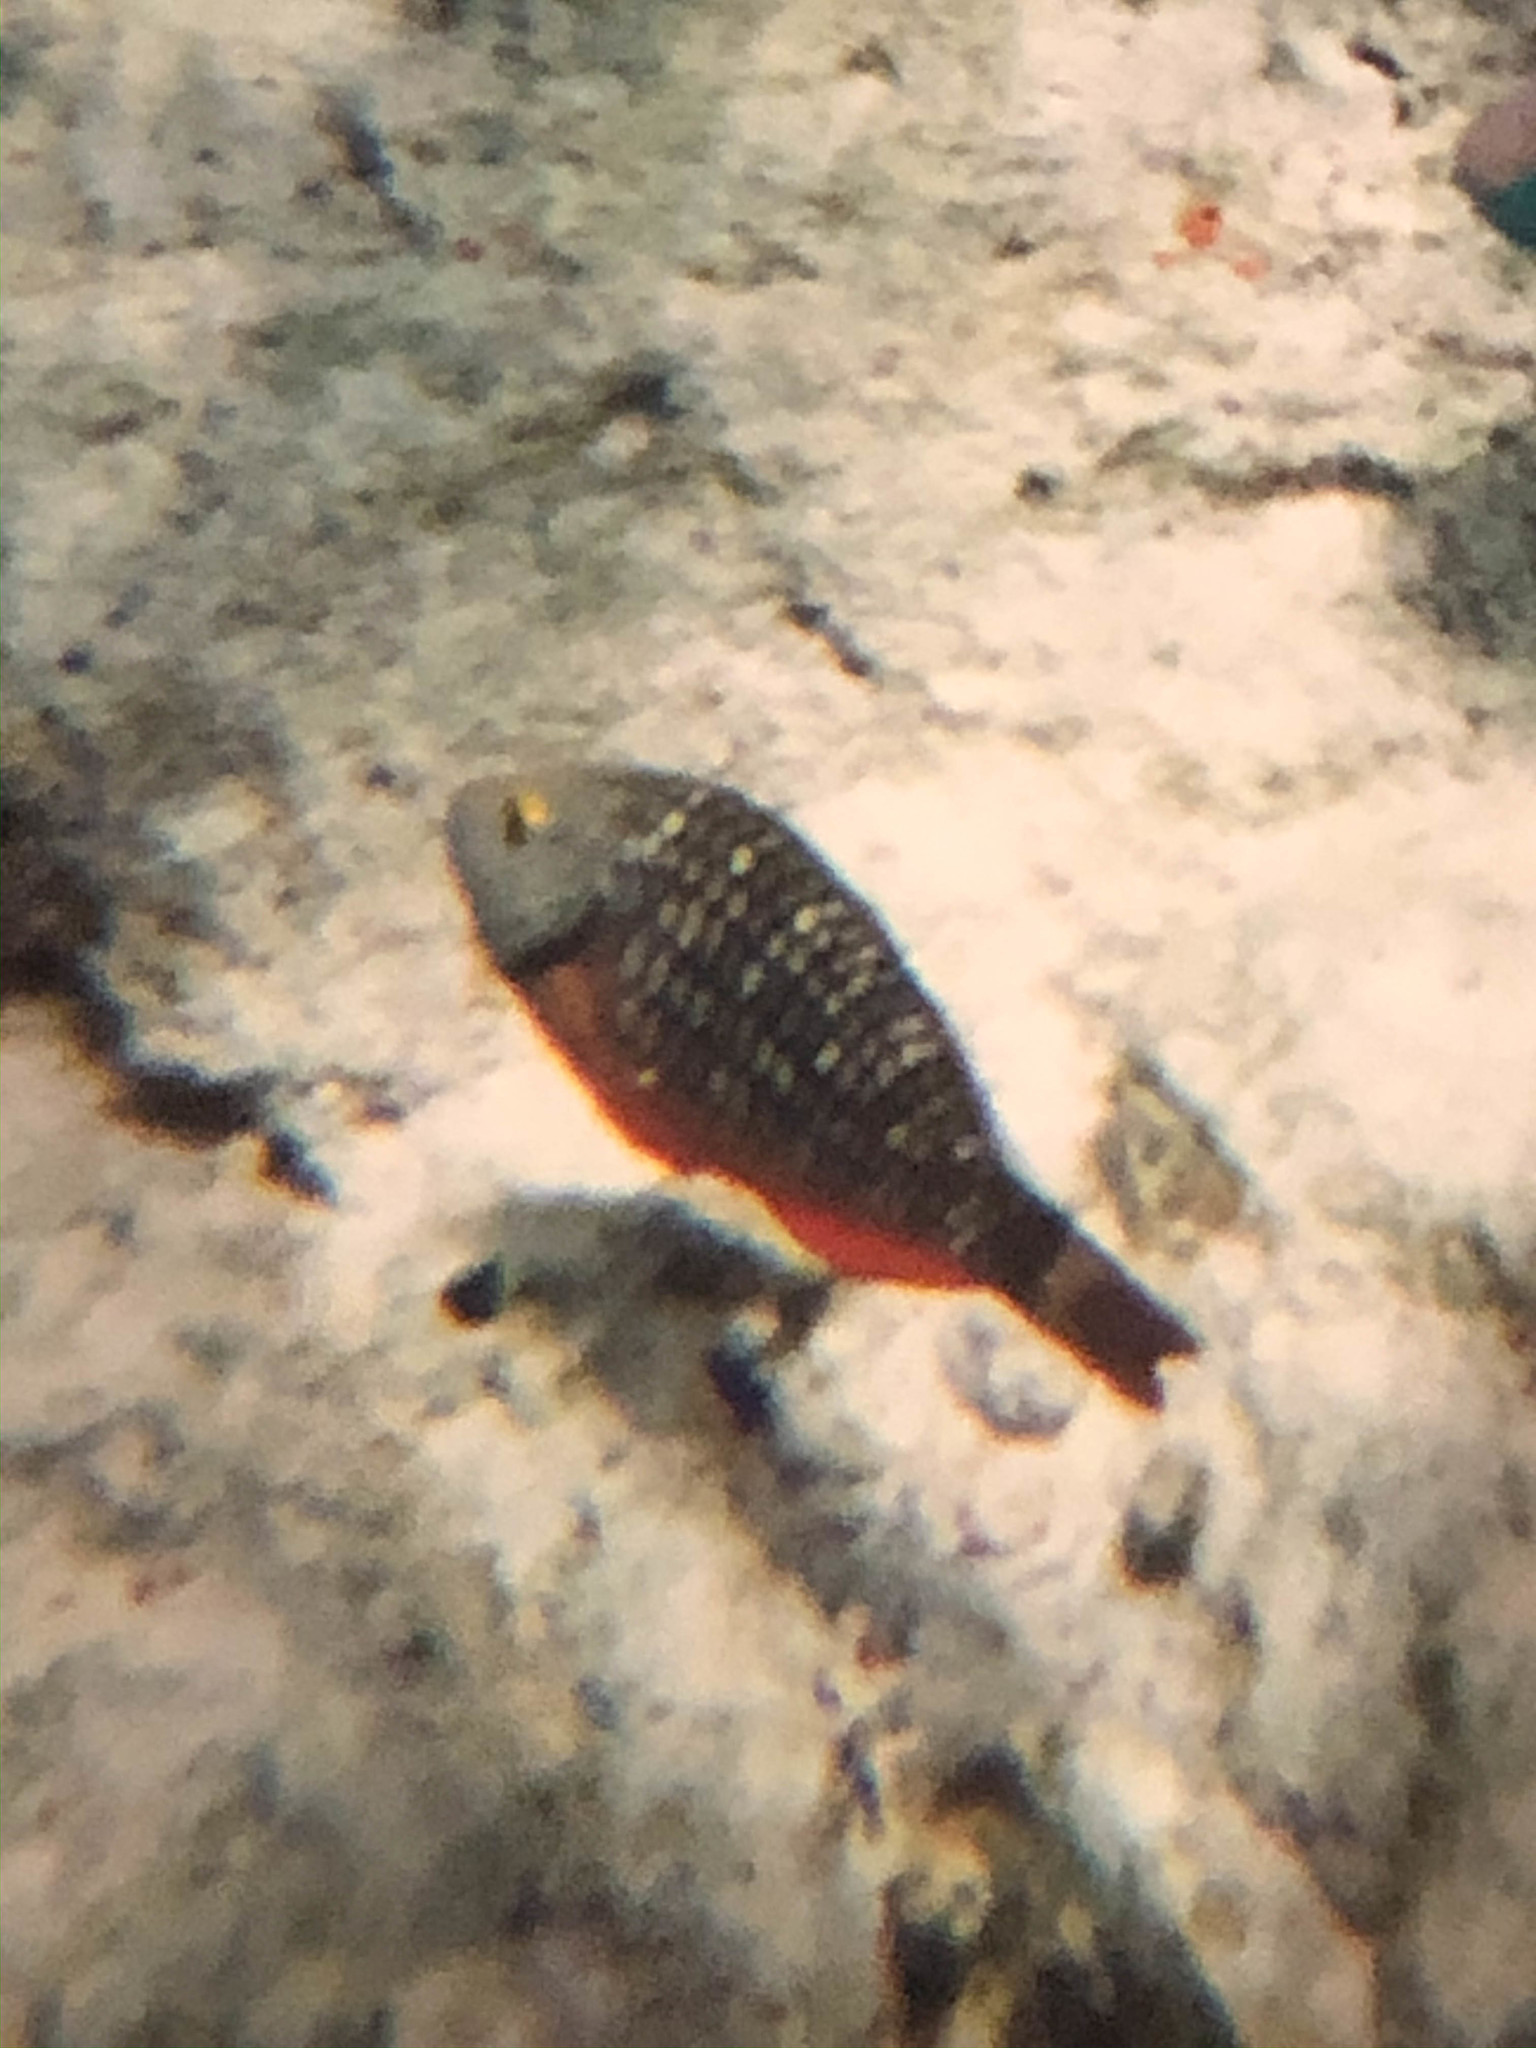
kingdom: Animalia
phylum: Chordata
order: Perciformes
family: Scaridae
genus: Sparisoma
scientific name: Sparisoma viride
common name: Stoplight parrotfish
